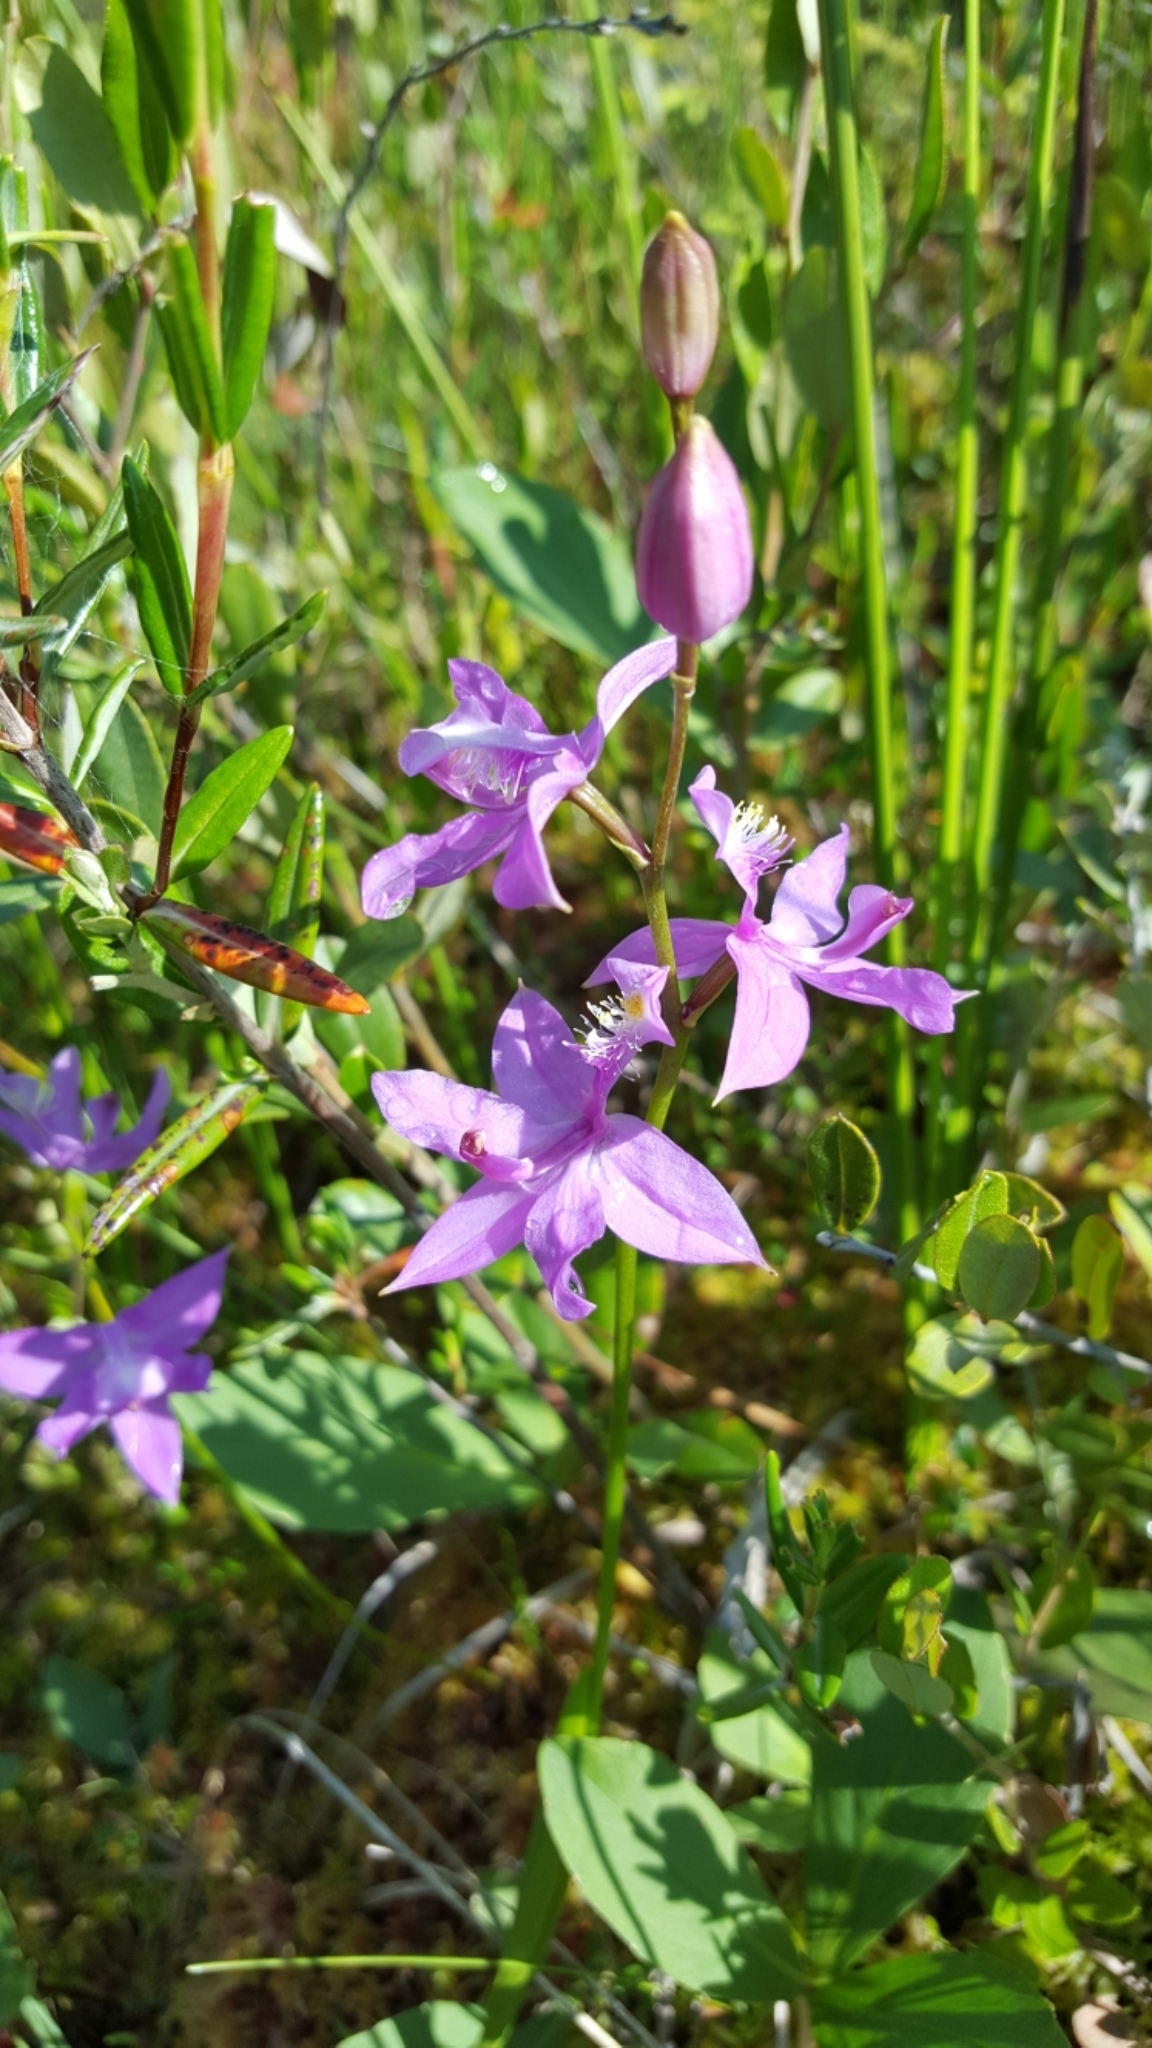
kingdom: Plantae
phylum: Tracheophyta
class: Liliopsida
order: Asparagales
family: Orchidaceae
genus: Calopogon
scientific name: Calopogon tuberosus
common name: Grass-pink
